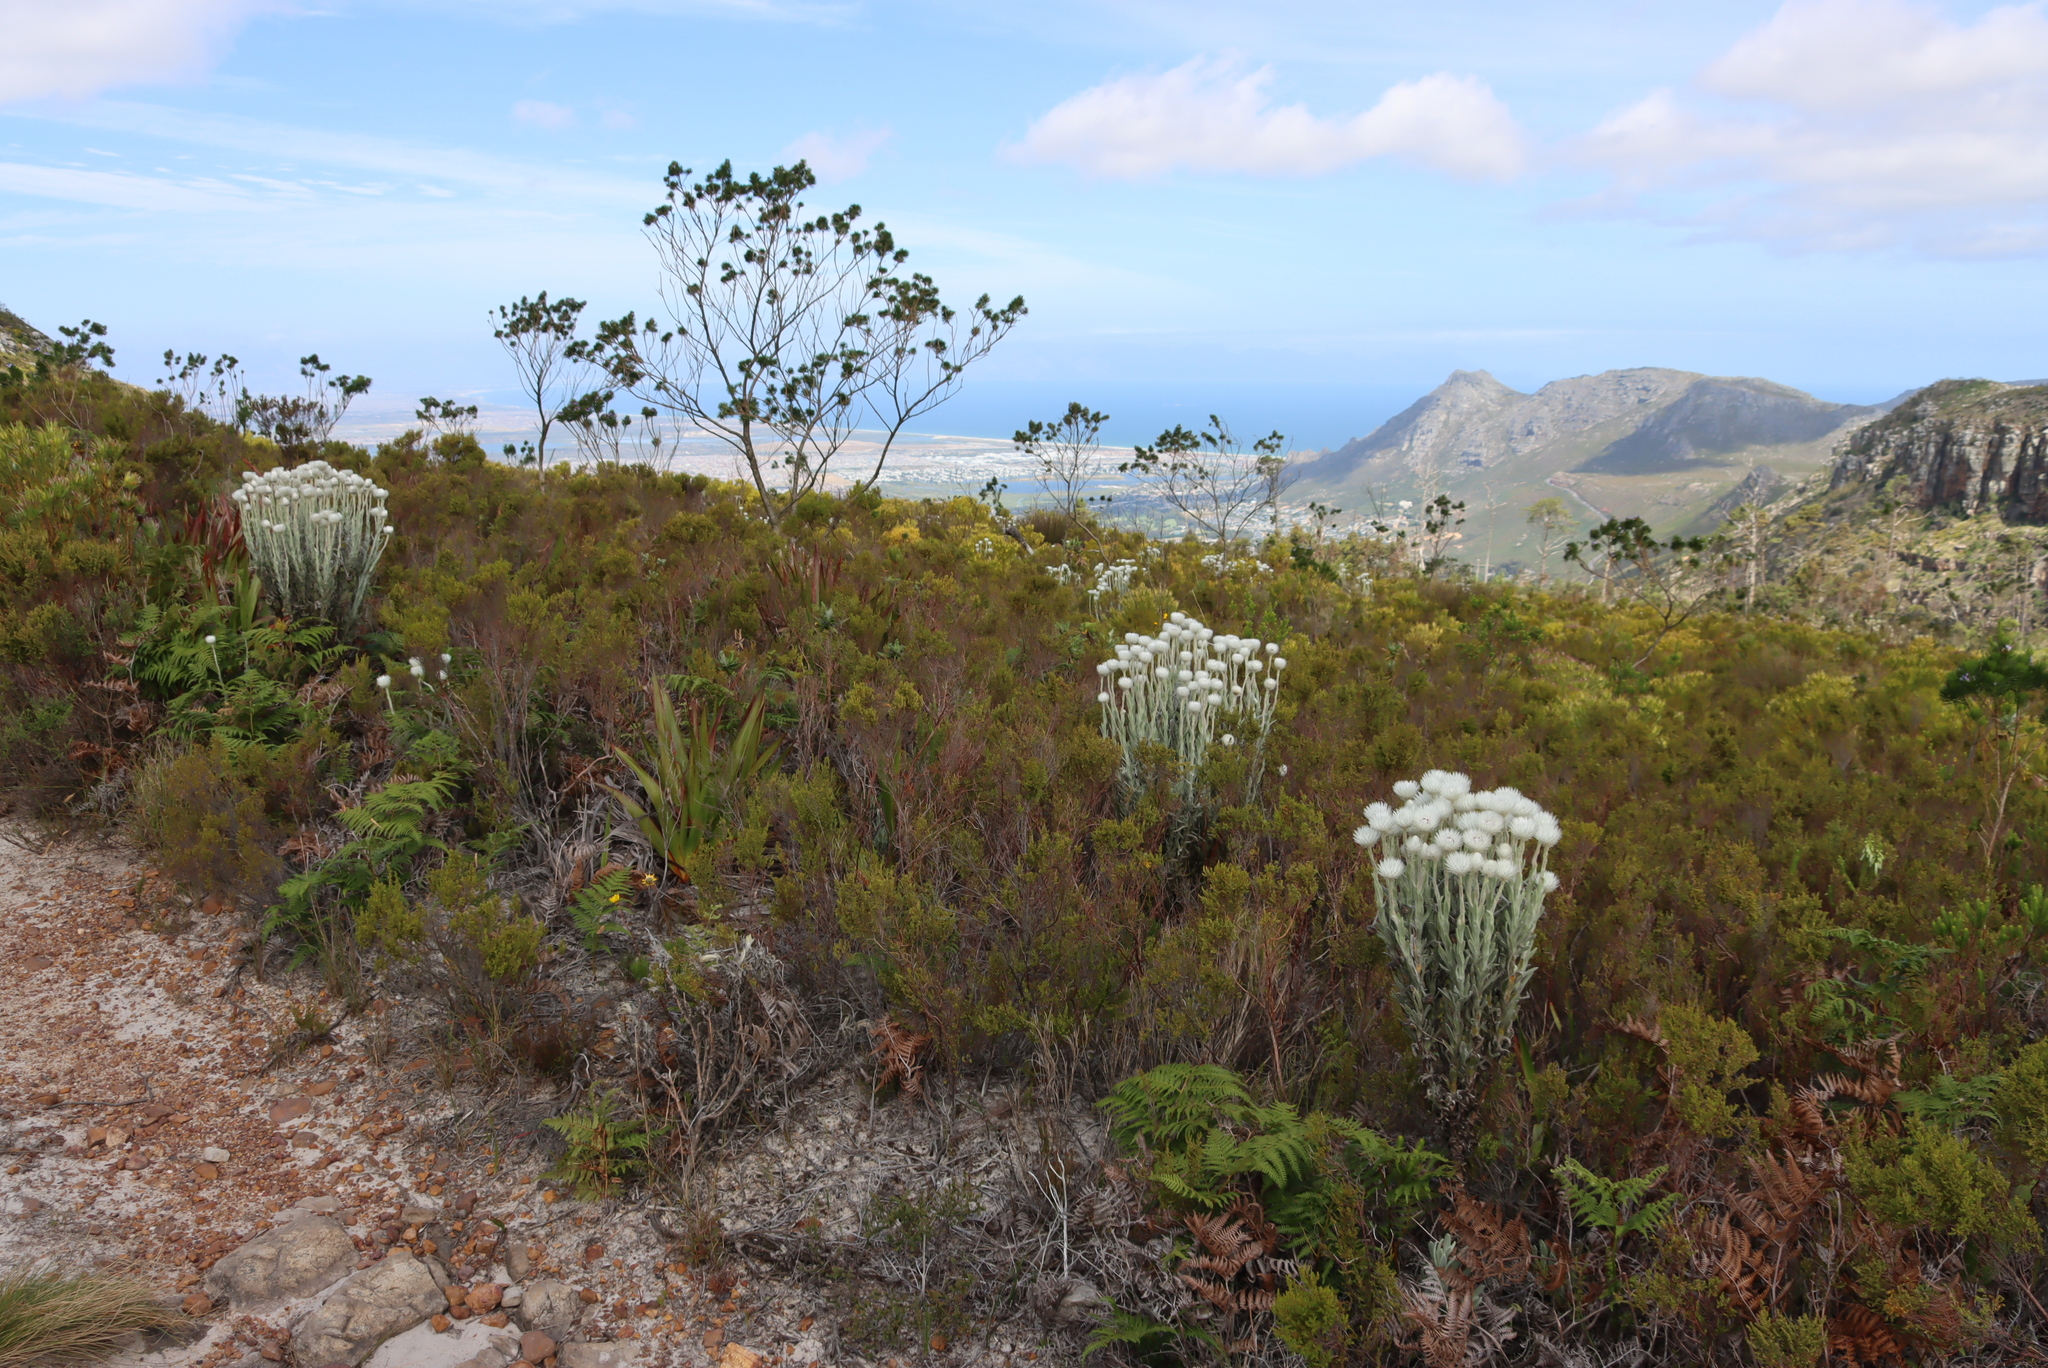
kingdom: Plantae
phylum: Tracheophyta
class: Magnoliopsida
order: Asterales
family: Asteraceae
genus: Syncarpha
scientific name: Syncarpha vestita
